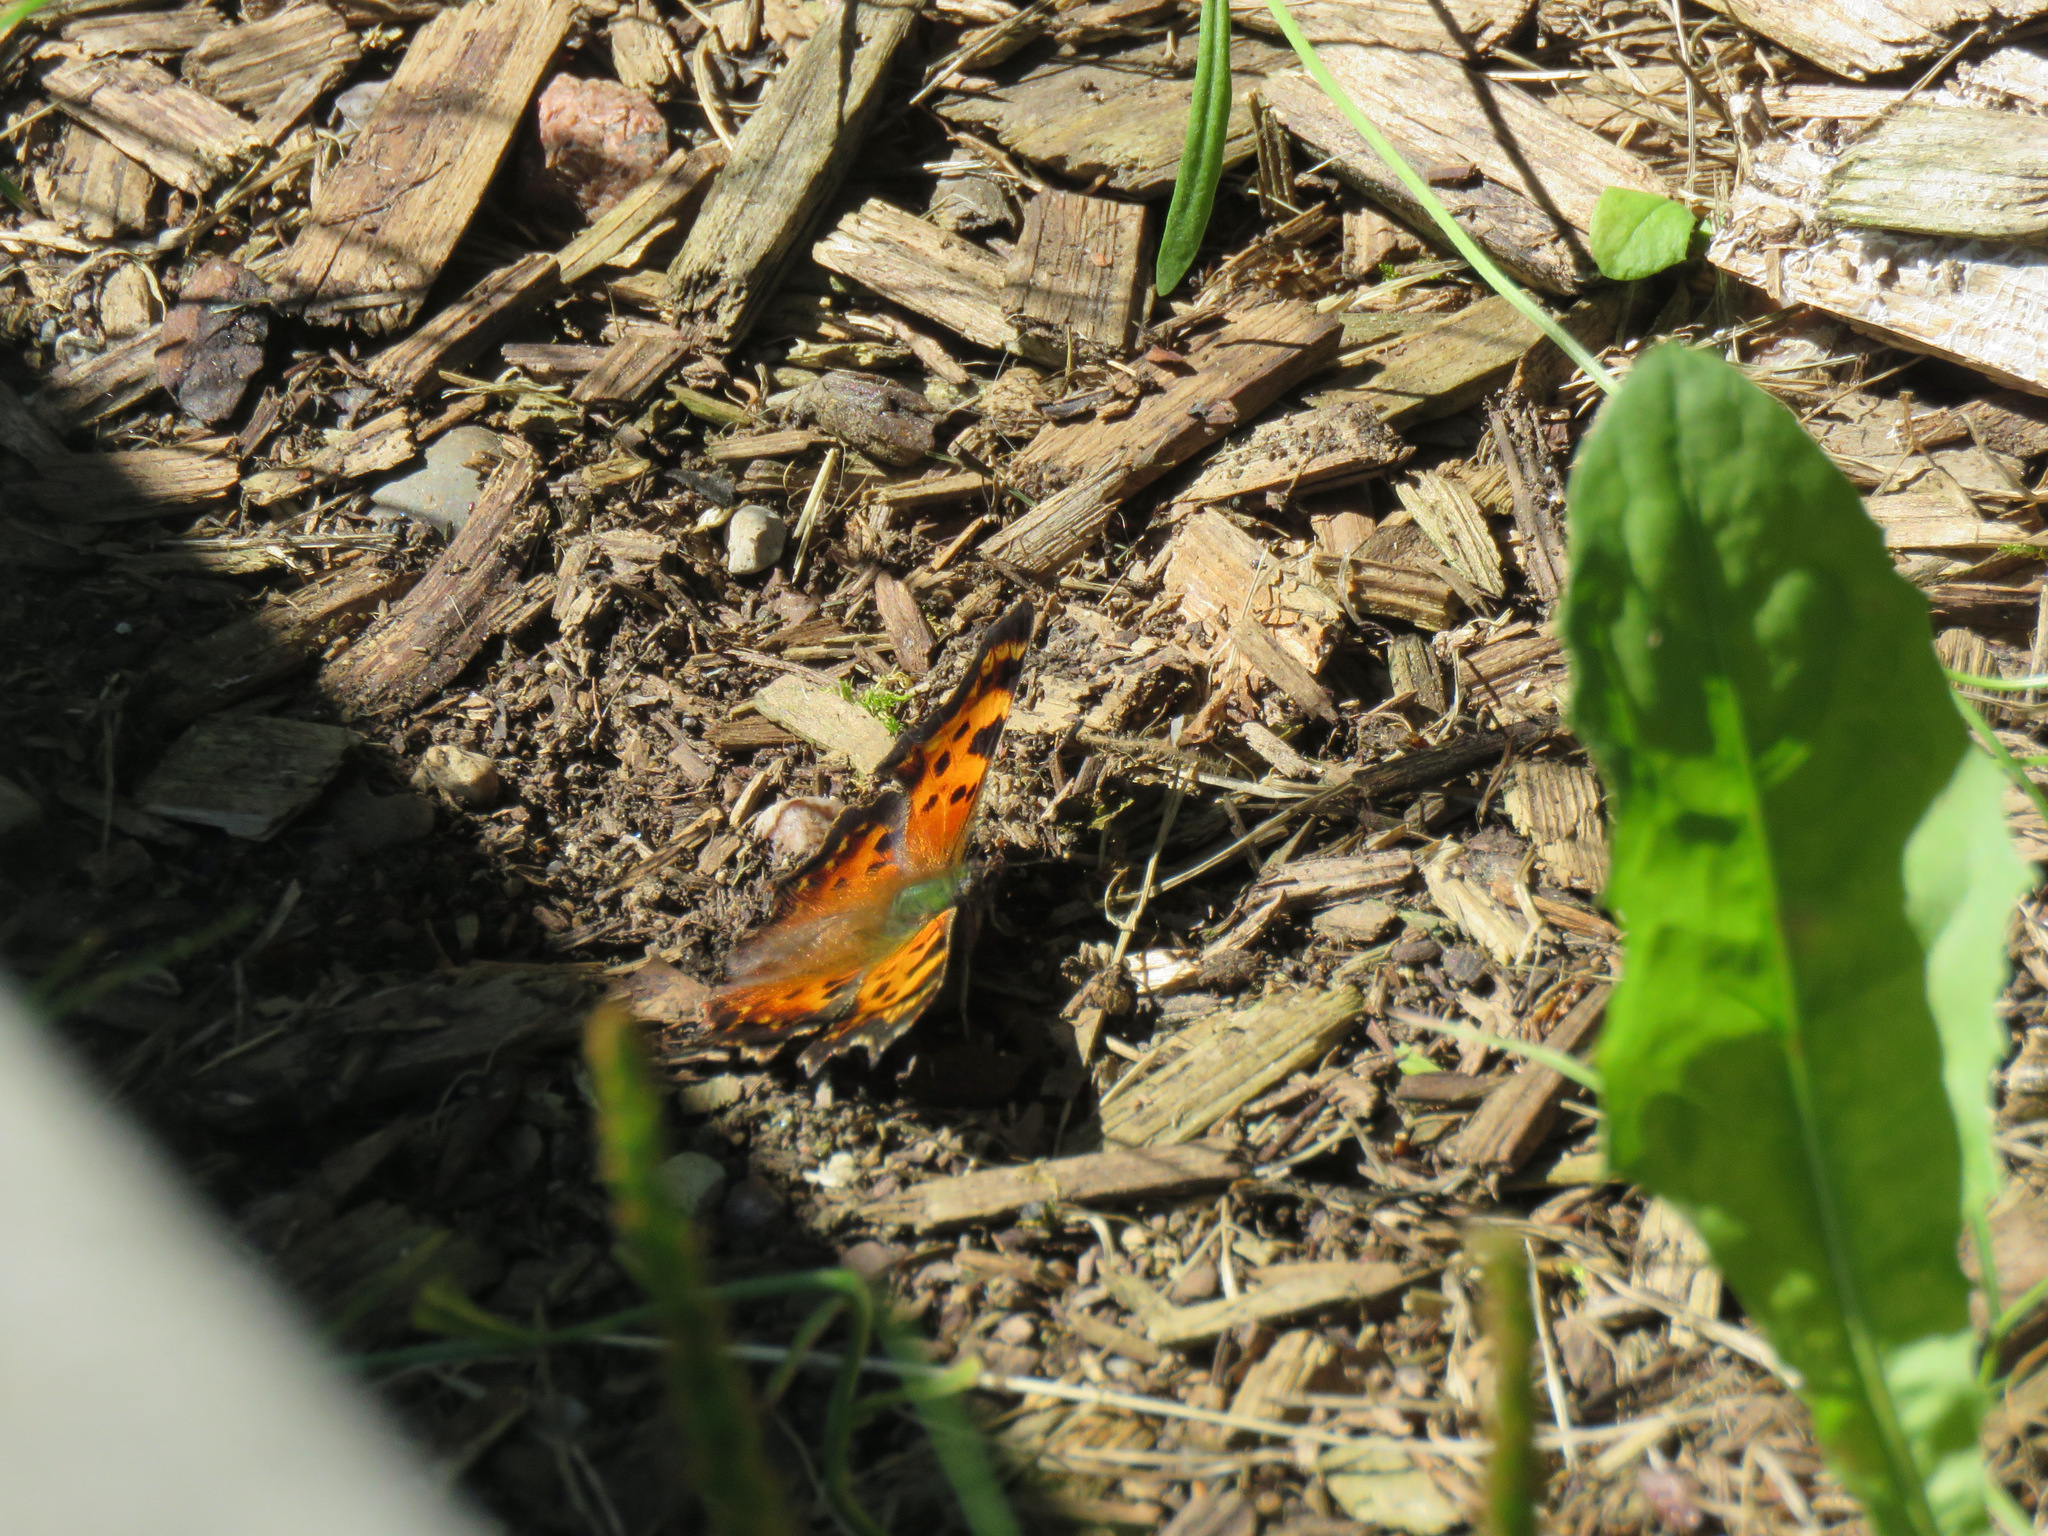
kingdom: Animalia
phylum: Arthropoda
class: Insecta
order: Lepidoptera
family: Nymphalidae
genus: Polygonia
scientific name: Polygonia faunus
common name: Green comma
